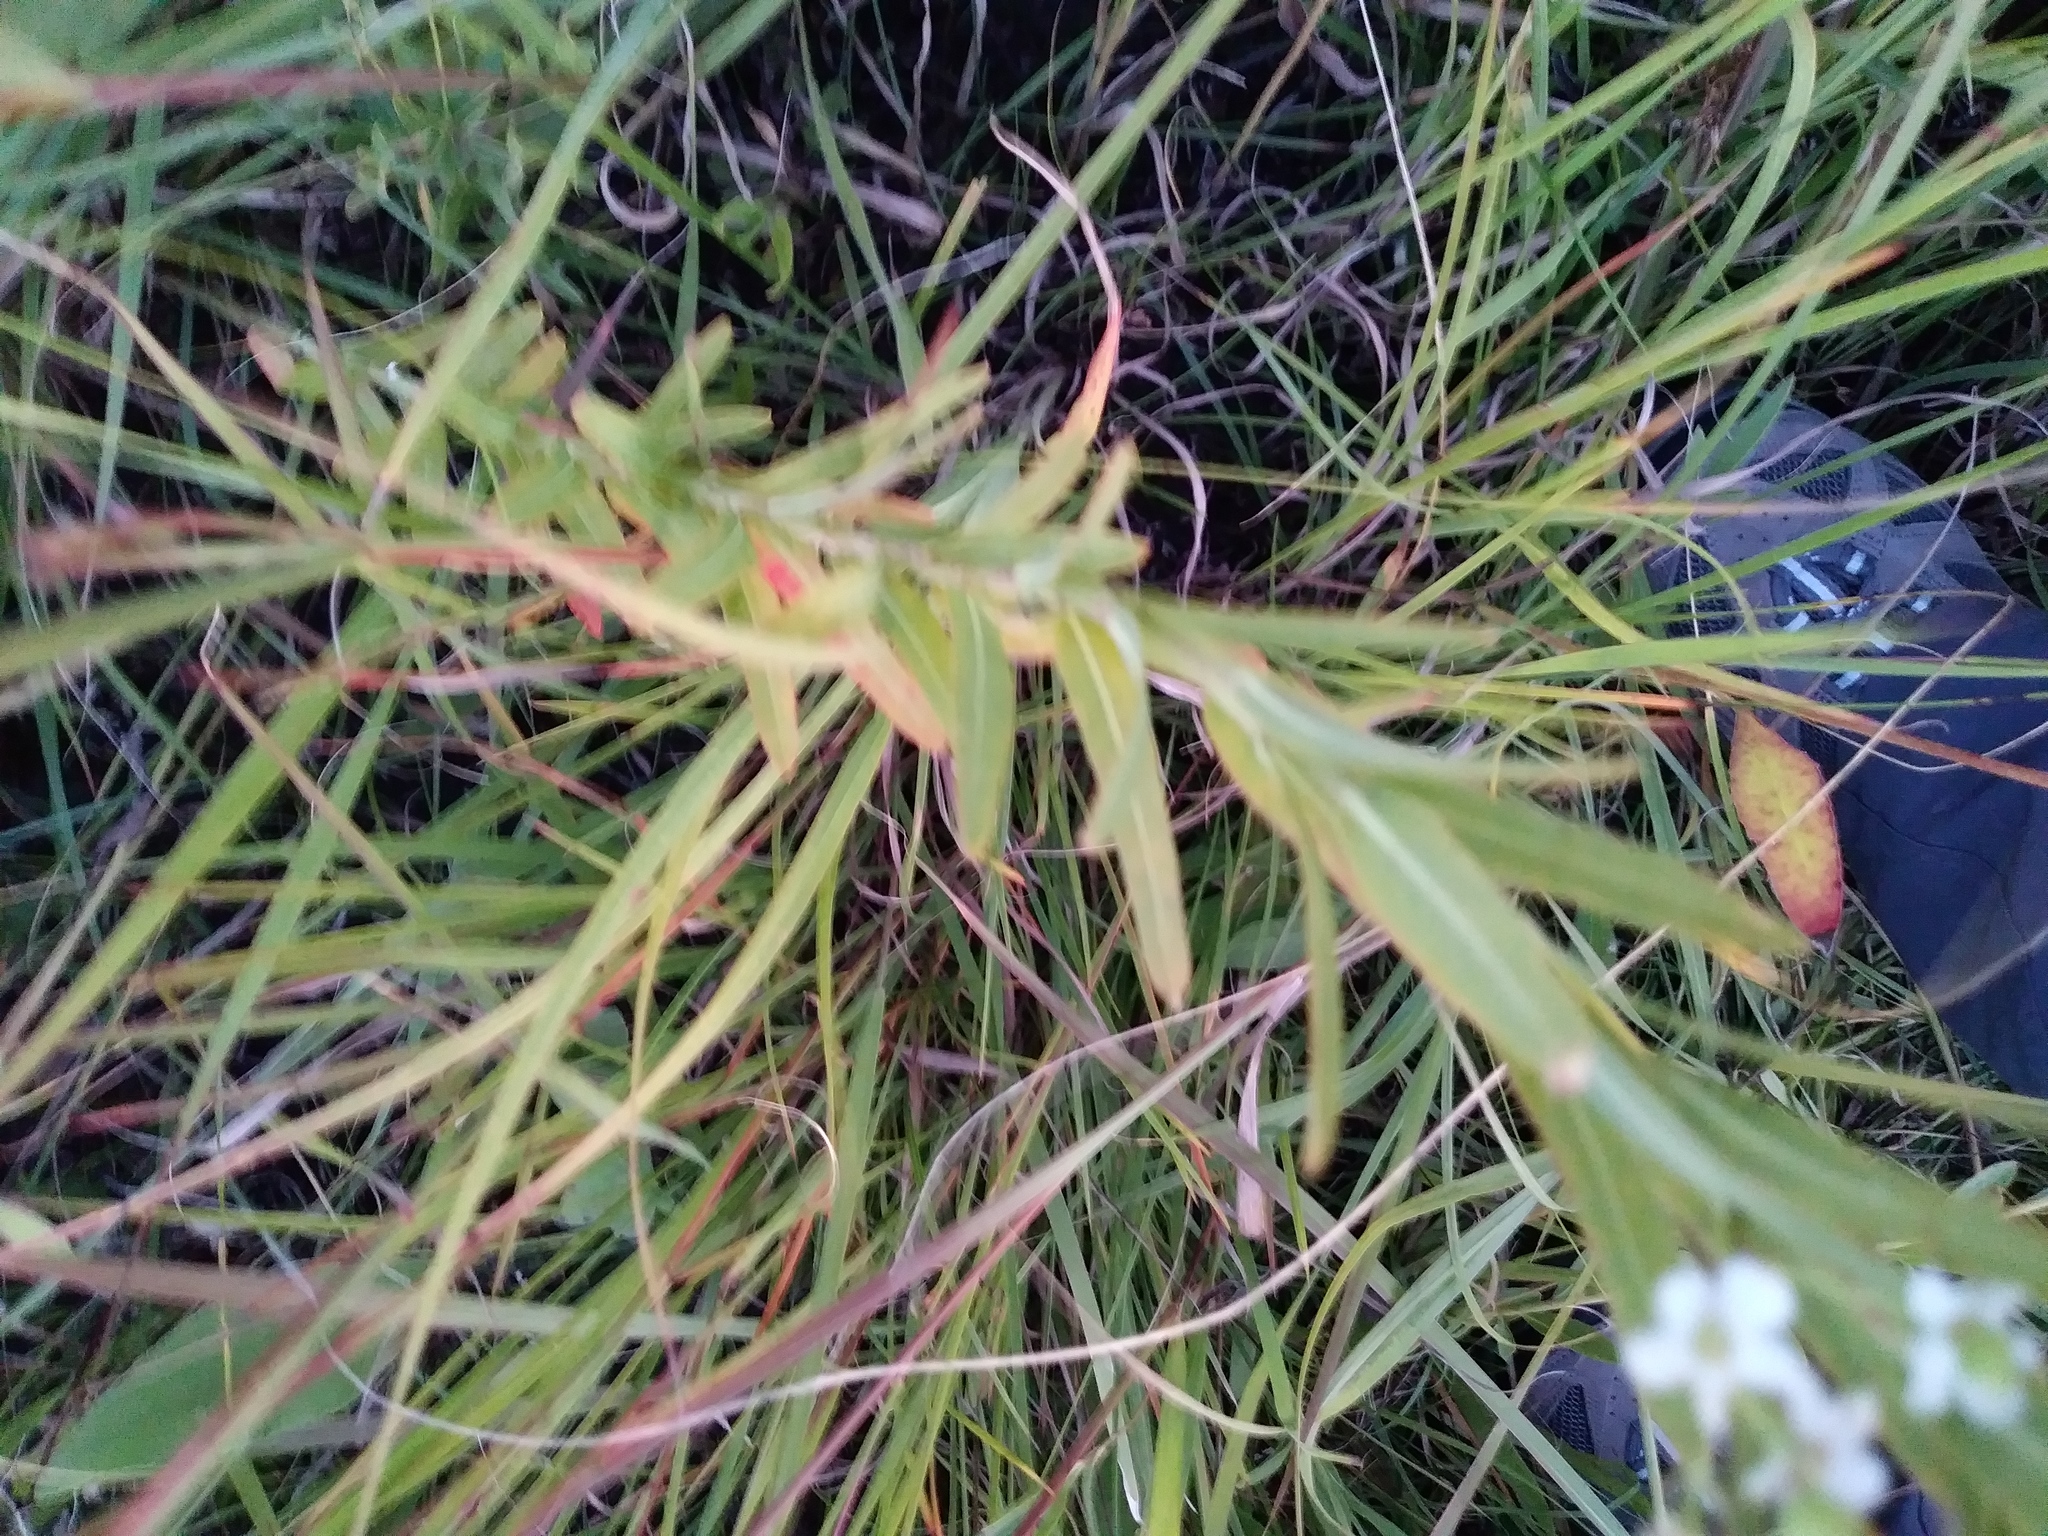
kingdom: Plantae
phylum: Tracheophyta
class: Magnoliopsida
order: Malpighiales
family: Euphorbiaceae
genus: Euphorbia
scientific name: Euphorbia corollata
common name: Flowering spurge
